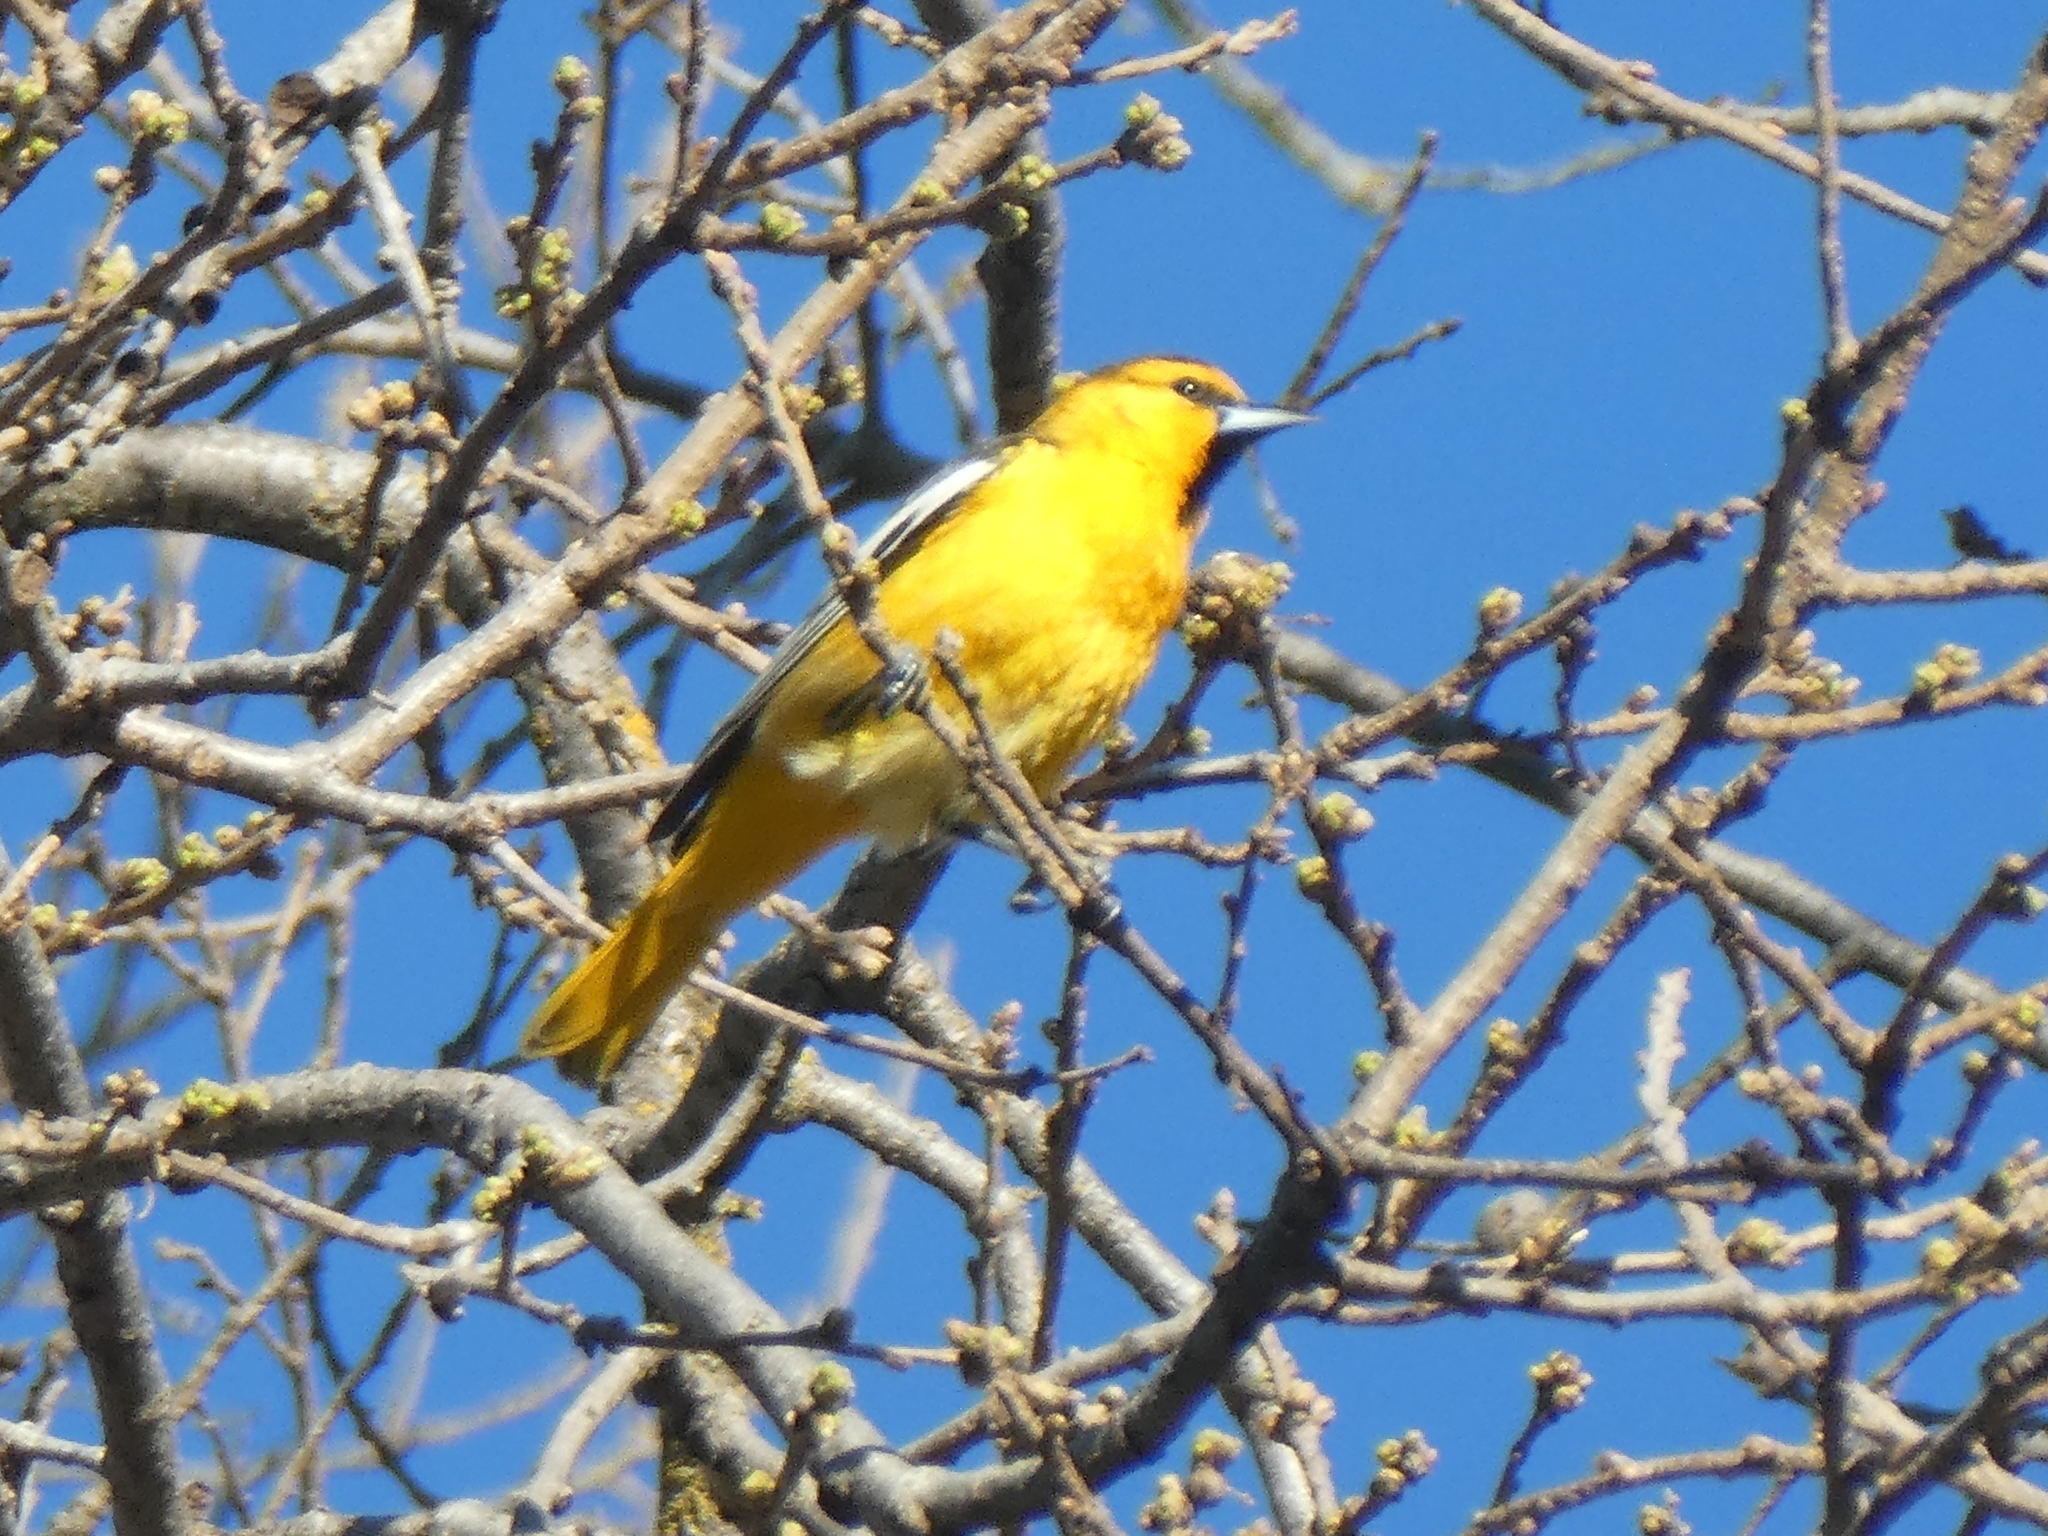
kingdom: Animalia
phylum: Chordata
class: Aves
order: Passeriformes
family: Icteridae
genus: Icterus
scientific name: Icterus bullockii
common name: Bullock's oriole
